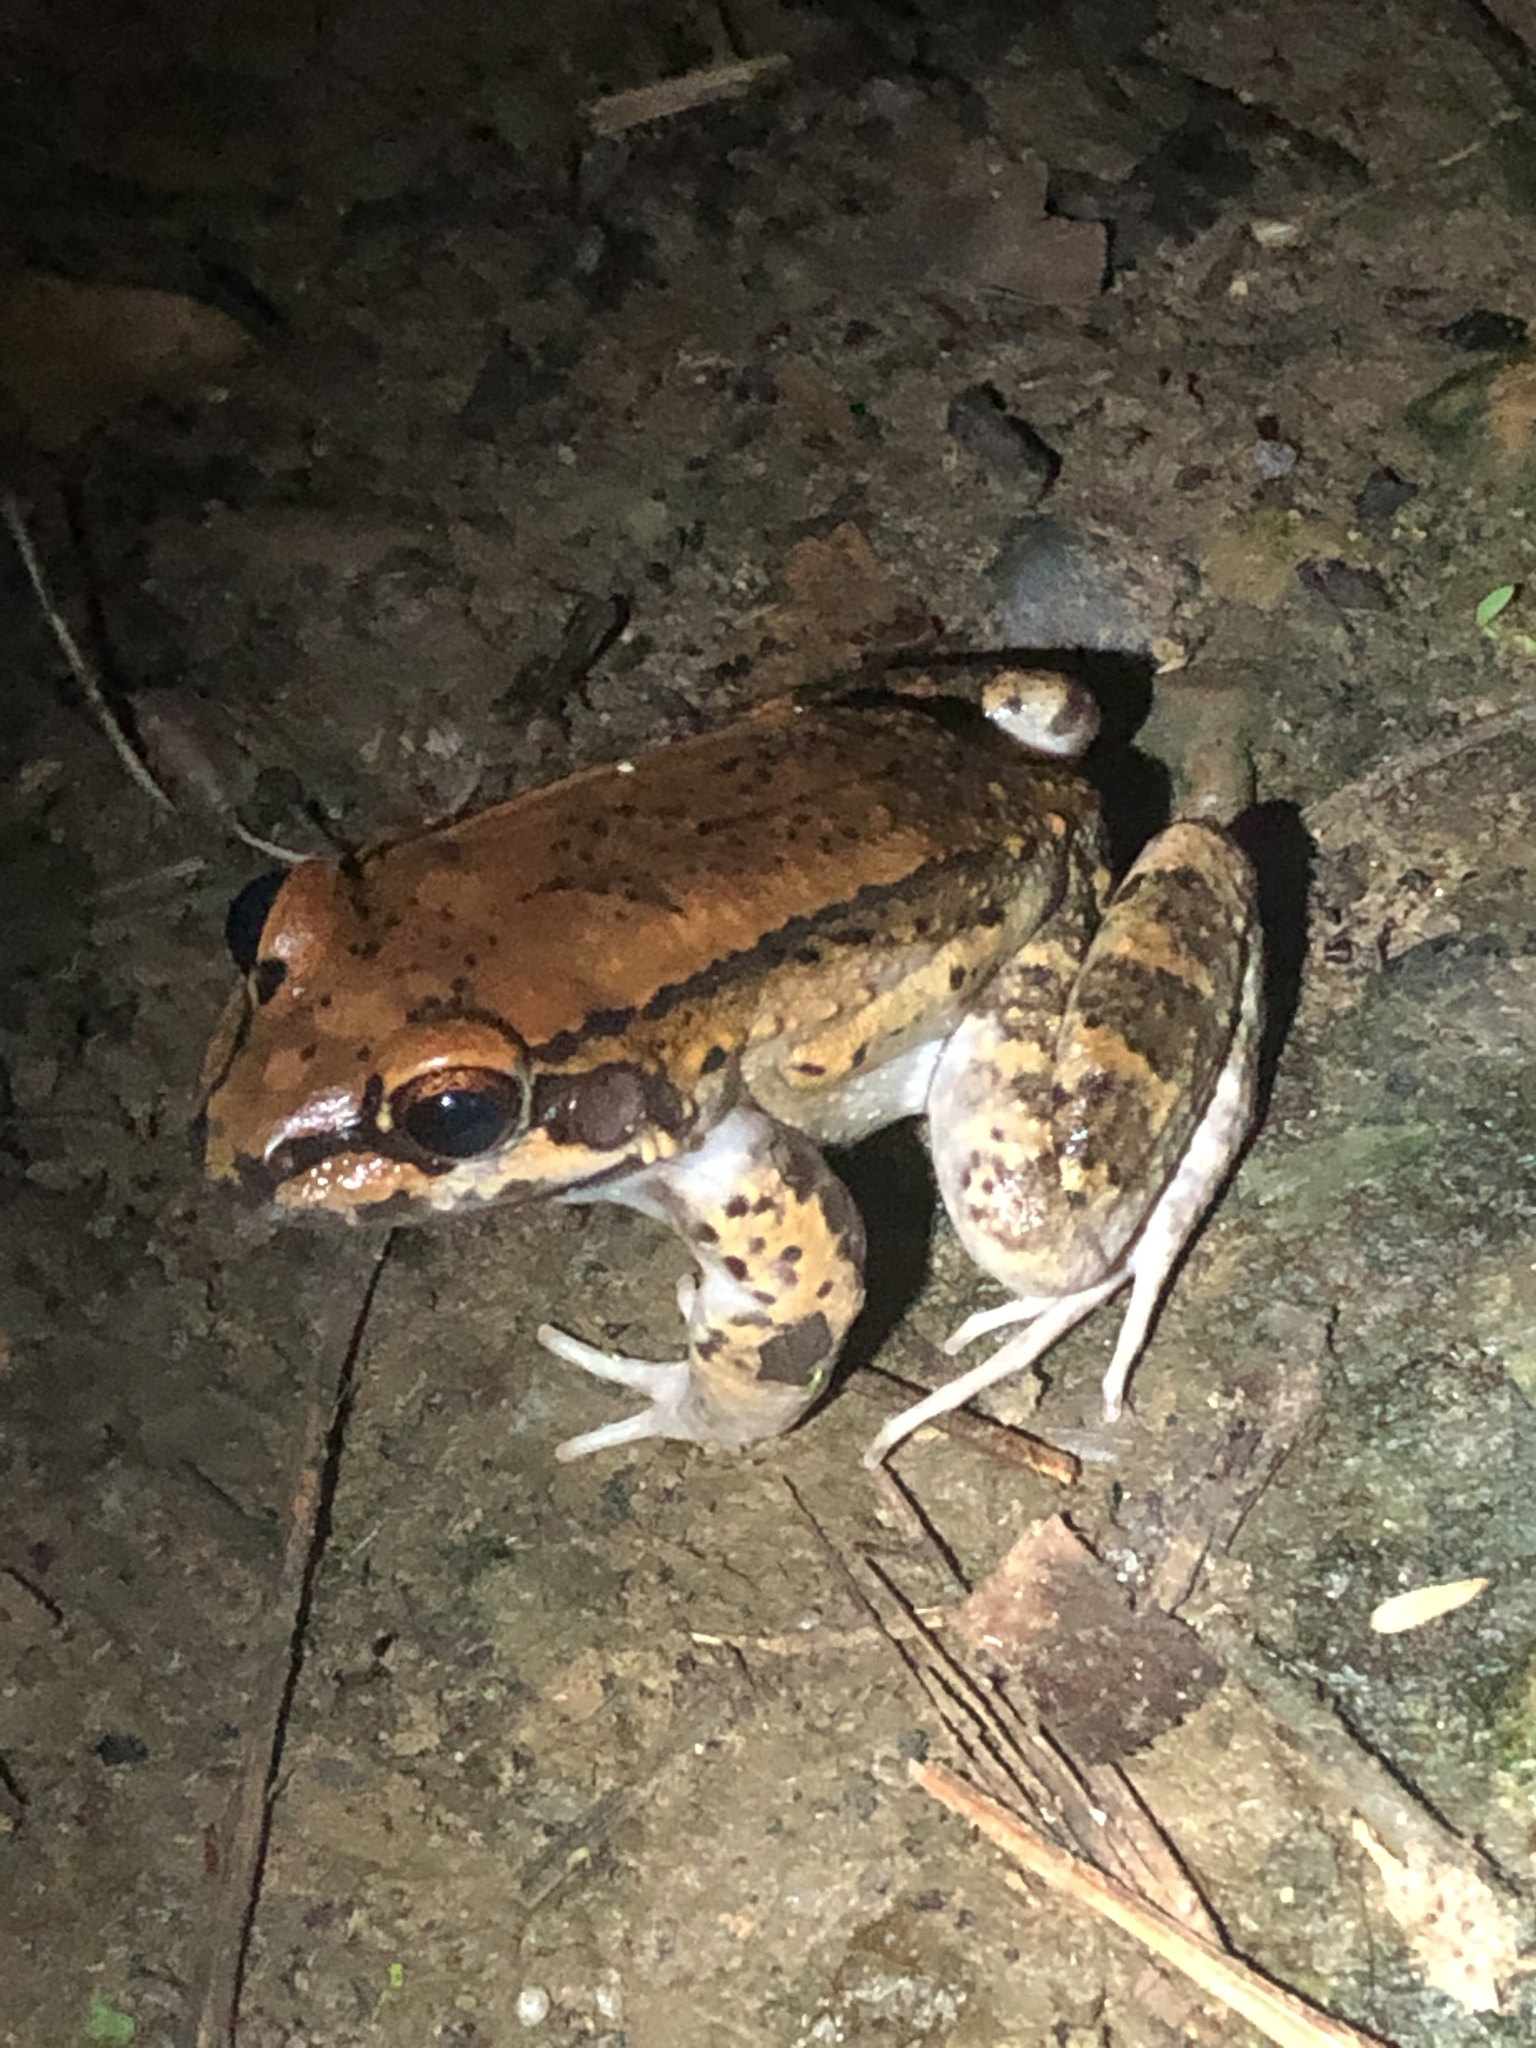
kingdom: Animalia
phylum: Chordata
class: Amphibia
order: Anura
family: Leptodactylidae
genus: Leptodactylus
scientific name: Leptodactylus rhodonotus
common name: Peru white-lipped frog
